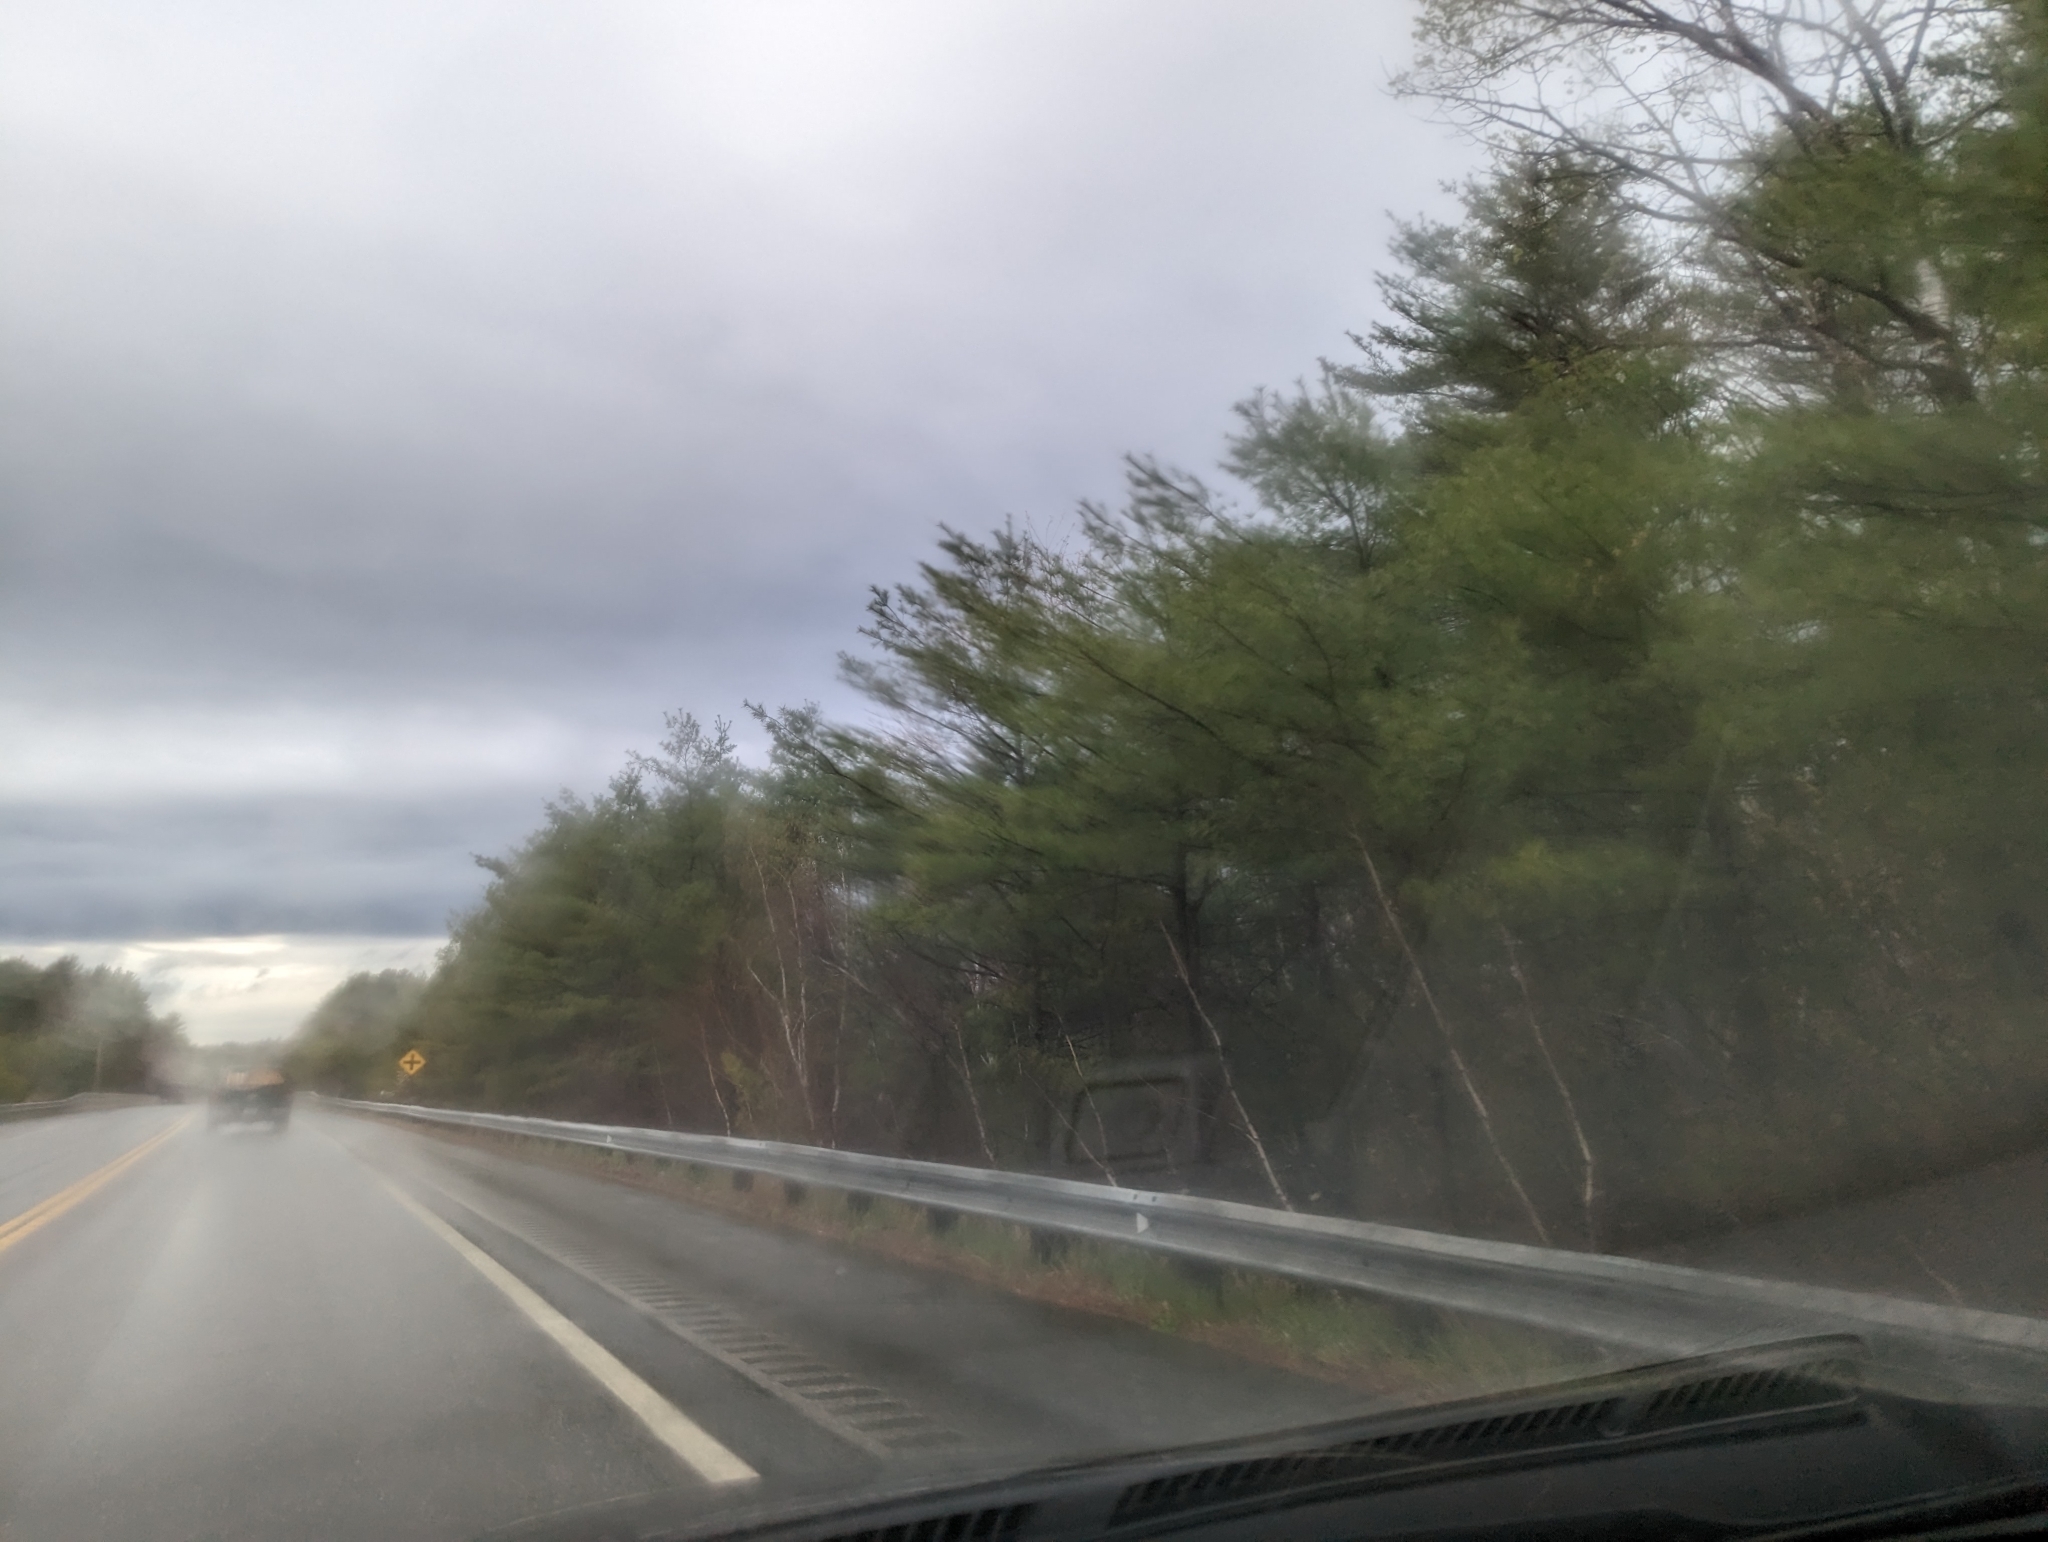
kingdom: Plantae
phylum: Tracheophyta
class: Pinopsida
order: Pinales
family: Pinaceae
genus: Pinus
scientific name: Pinus strobus
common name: Weymouth pine
